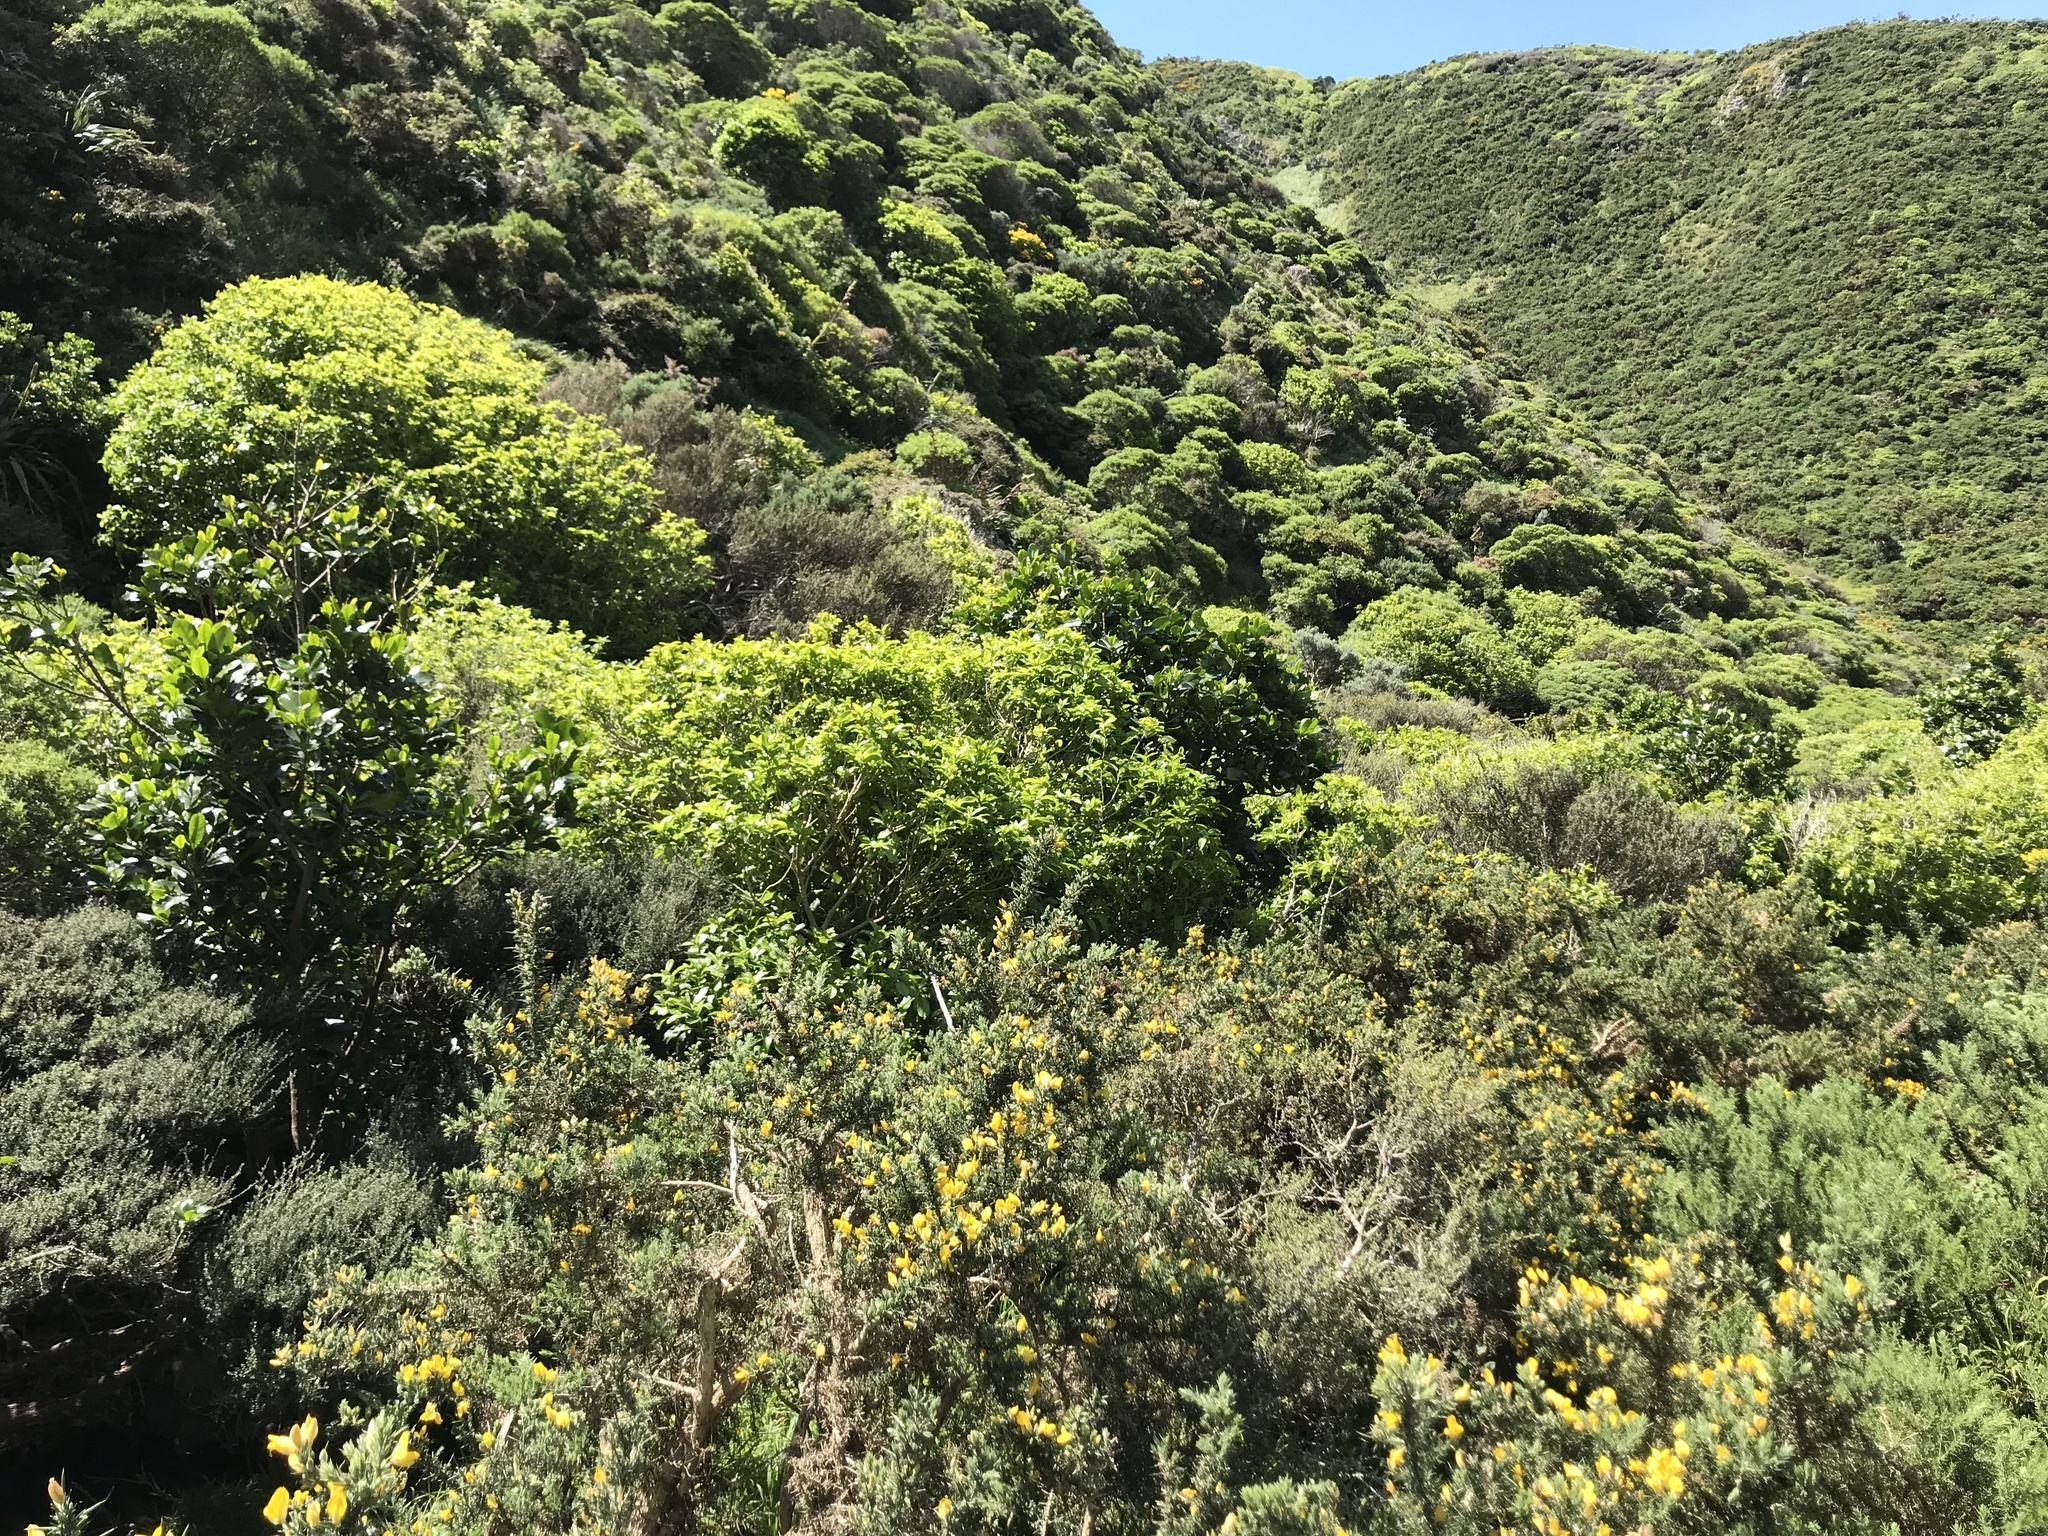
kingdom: Plantae
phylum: Tracheophyta
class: Magnoliopsida
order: Cucurbitales
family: Corynocarpaceae
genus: Corynocarpus
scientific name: Corynocarpus laevigatus
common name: New zealand laurel
